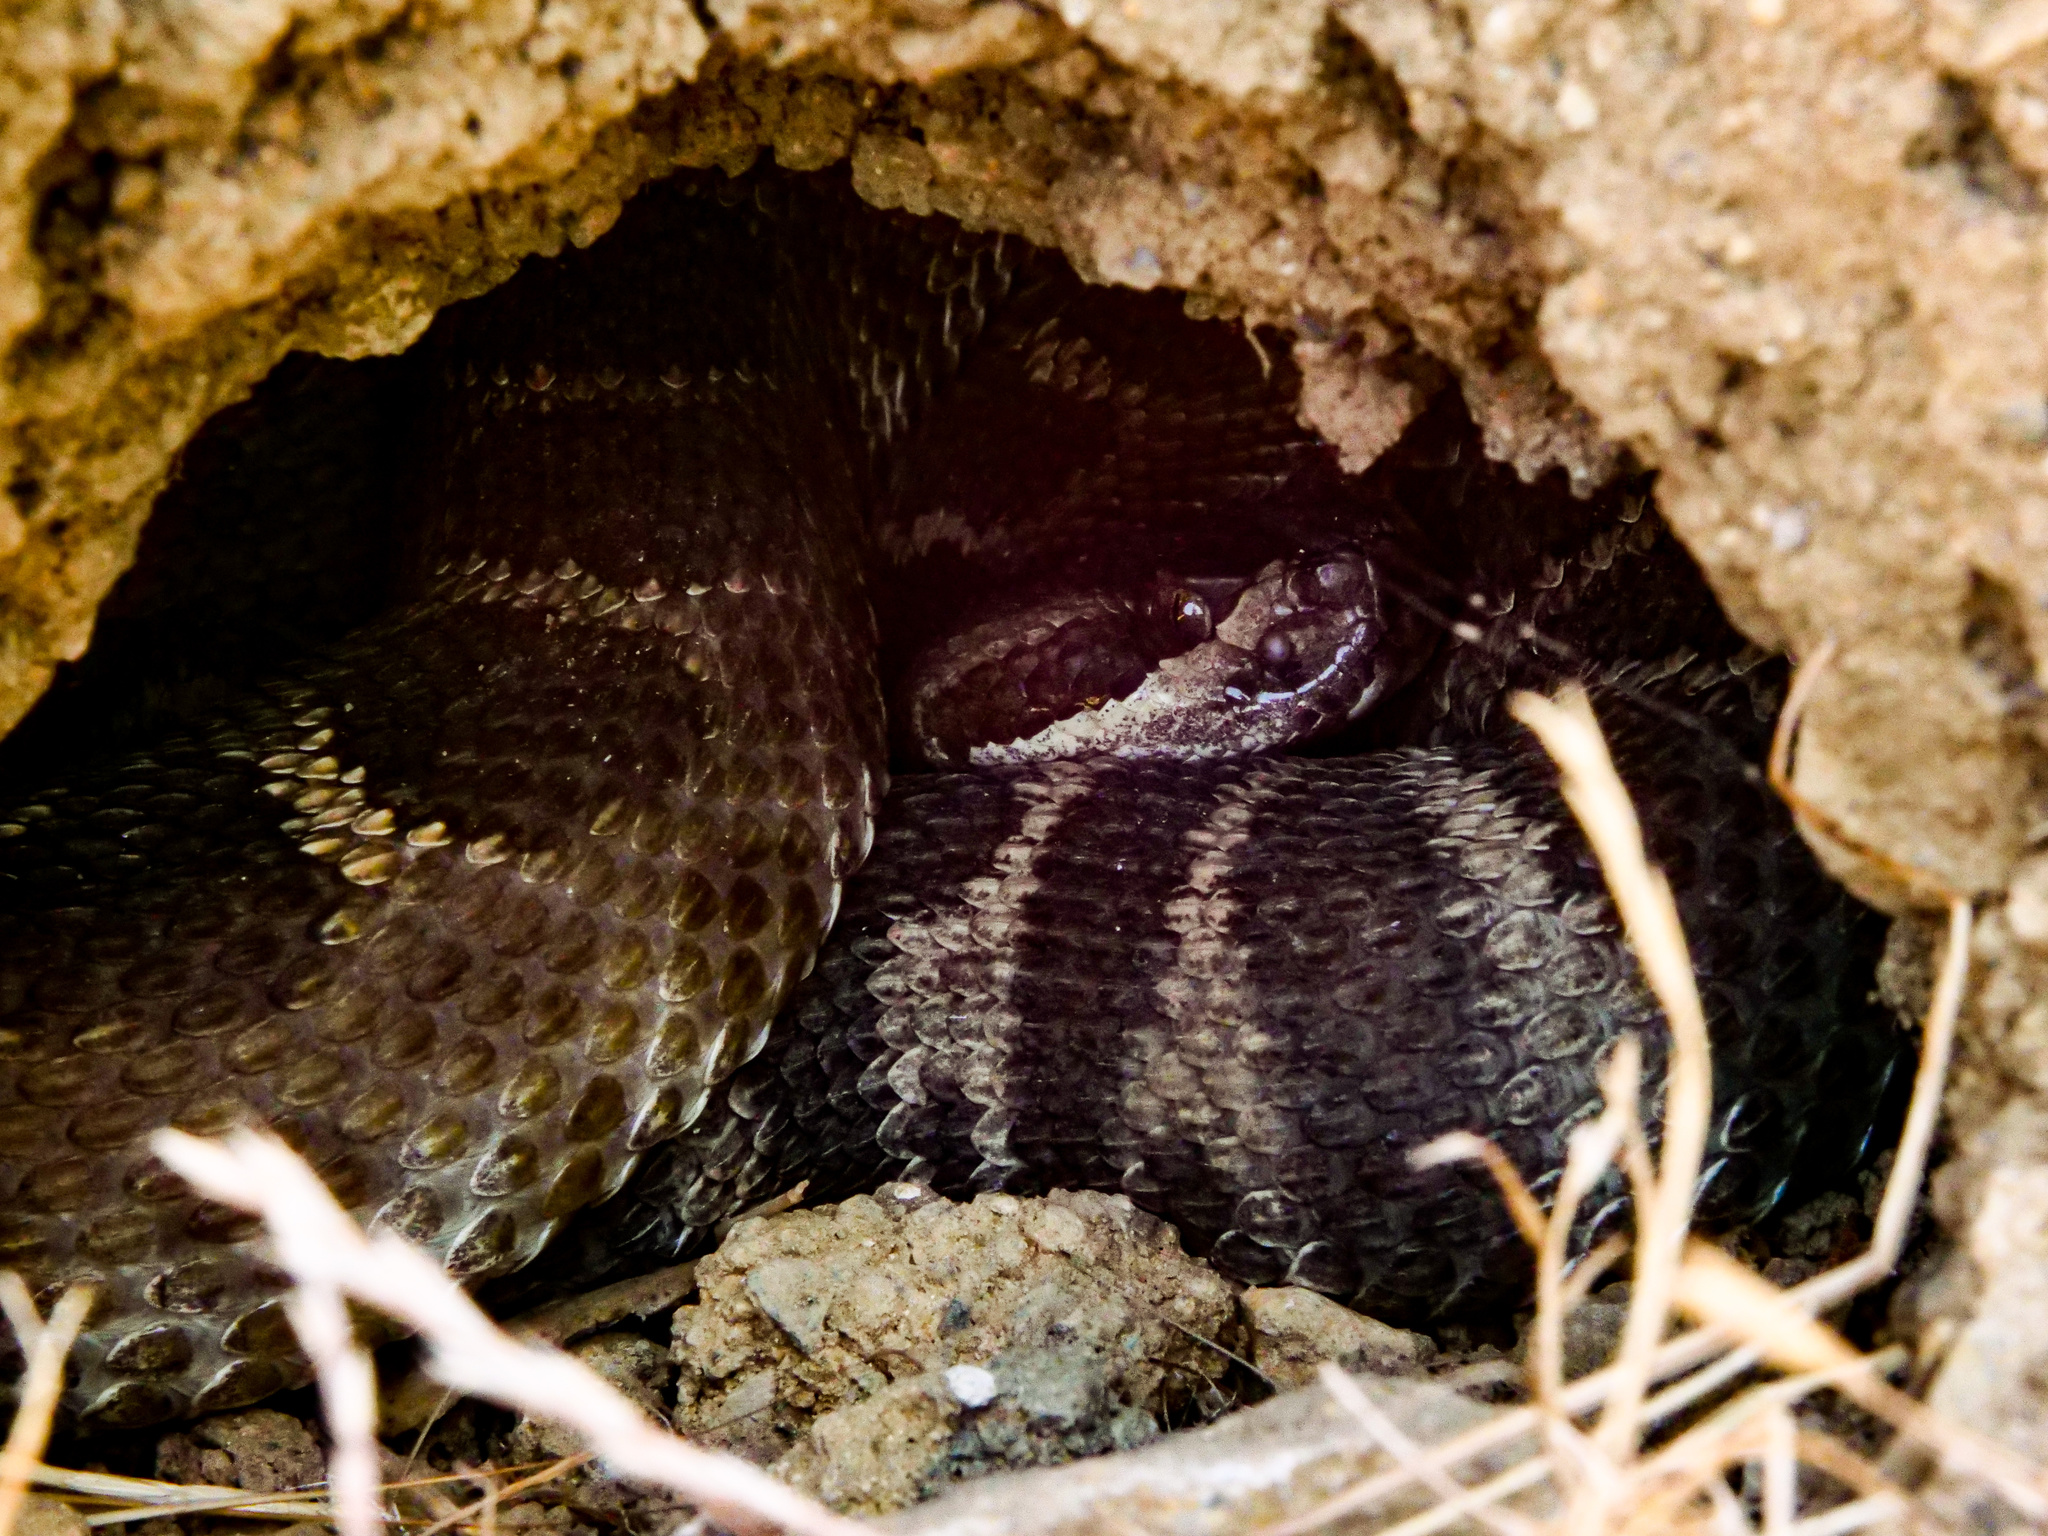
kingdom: Animalia
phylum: Chordata
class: Squamata
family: Viperidae
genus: Crotalus
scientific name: Crotalus oreganus
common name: Abyssus
